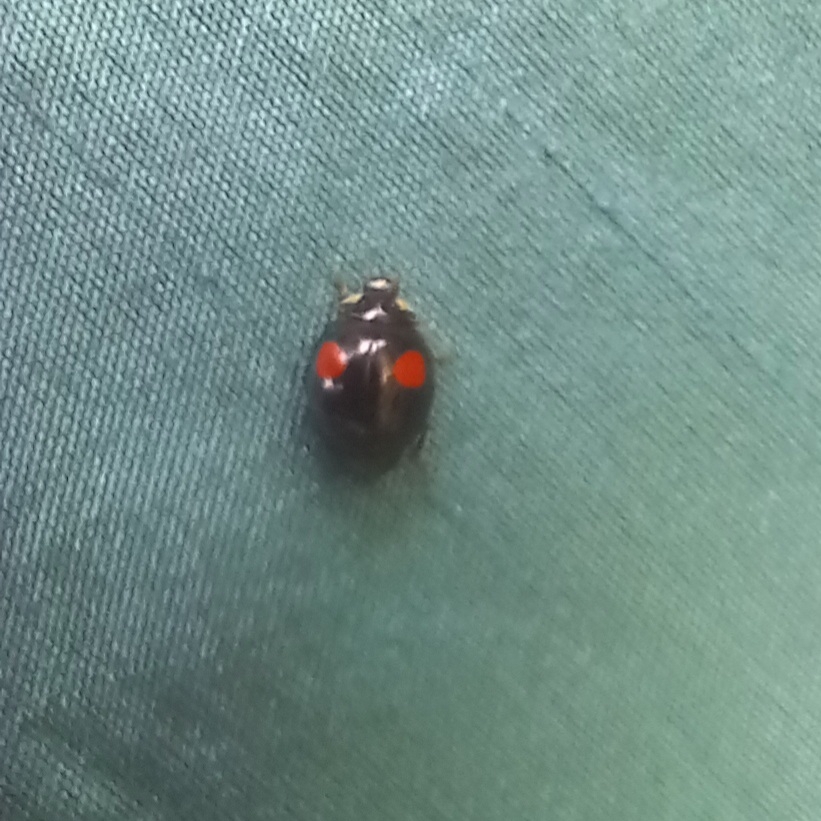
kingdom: Animalia
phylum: Arthropoda
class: Insecta
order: Coleoptera
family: Coccinellidae
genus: Harmonia
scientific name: Harmonia axyridis
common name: Harlequin ladybird
